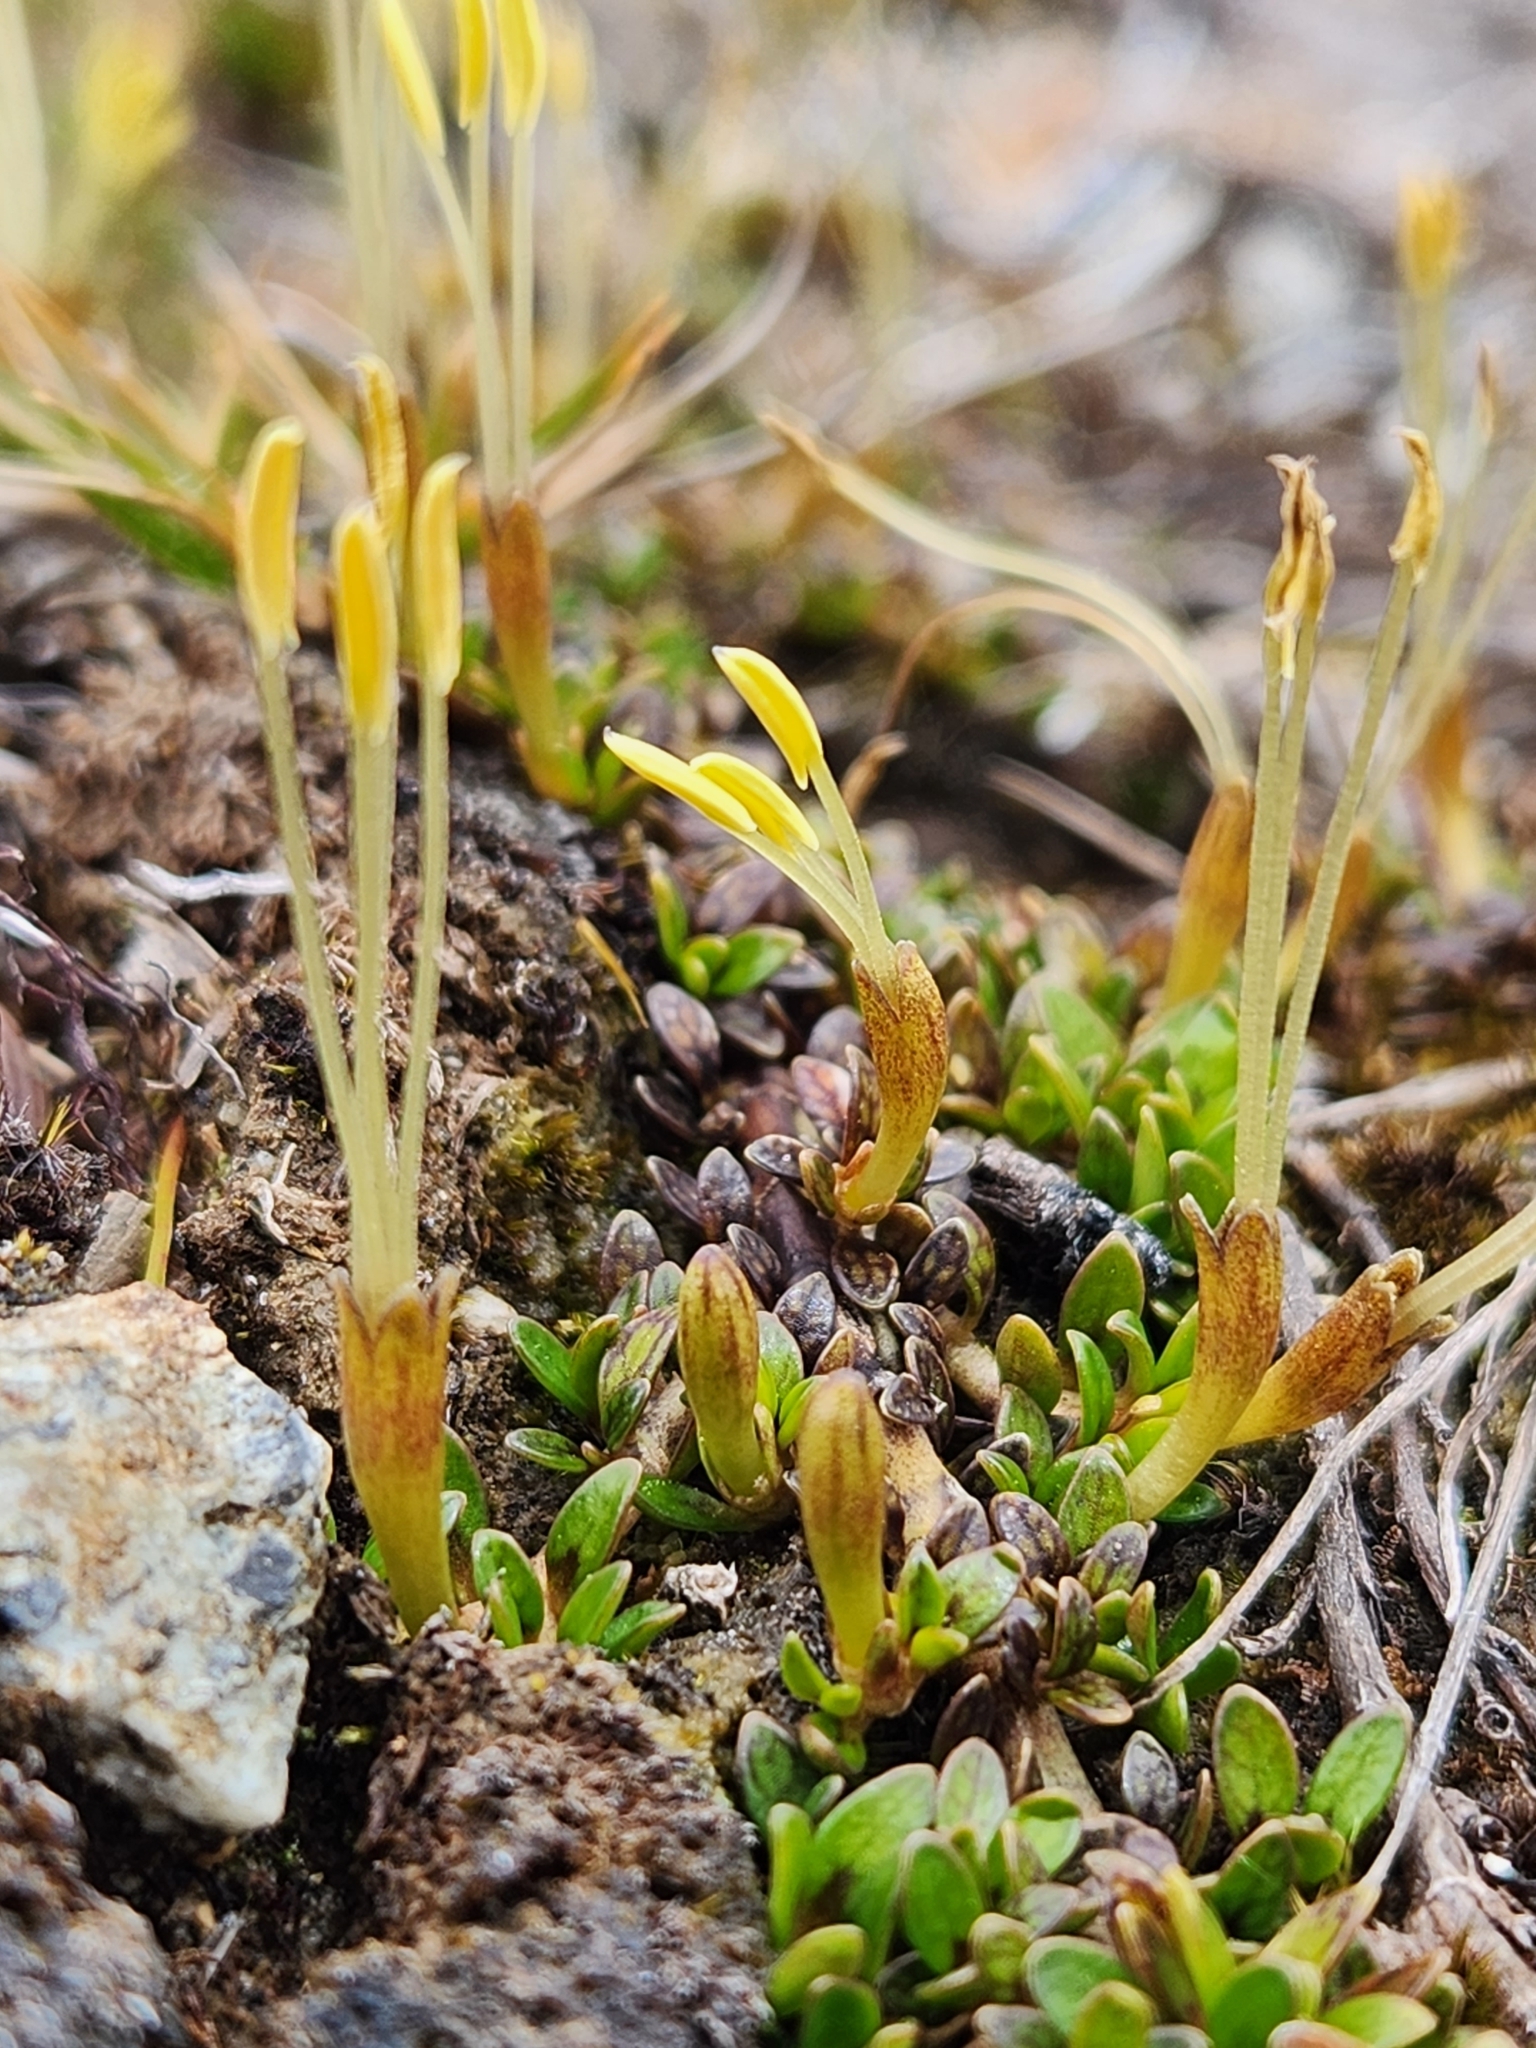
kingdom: Plantae
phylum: Tracheophyta
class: Magnoliopsida
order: Gentianales
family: Rubiaceae
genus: Coprosma
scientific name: Coprosma perpusilla
